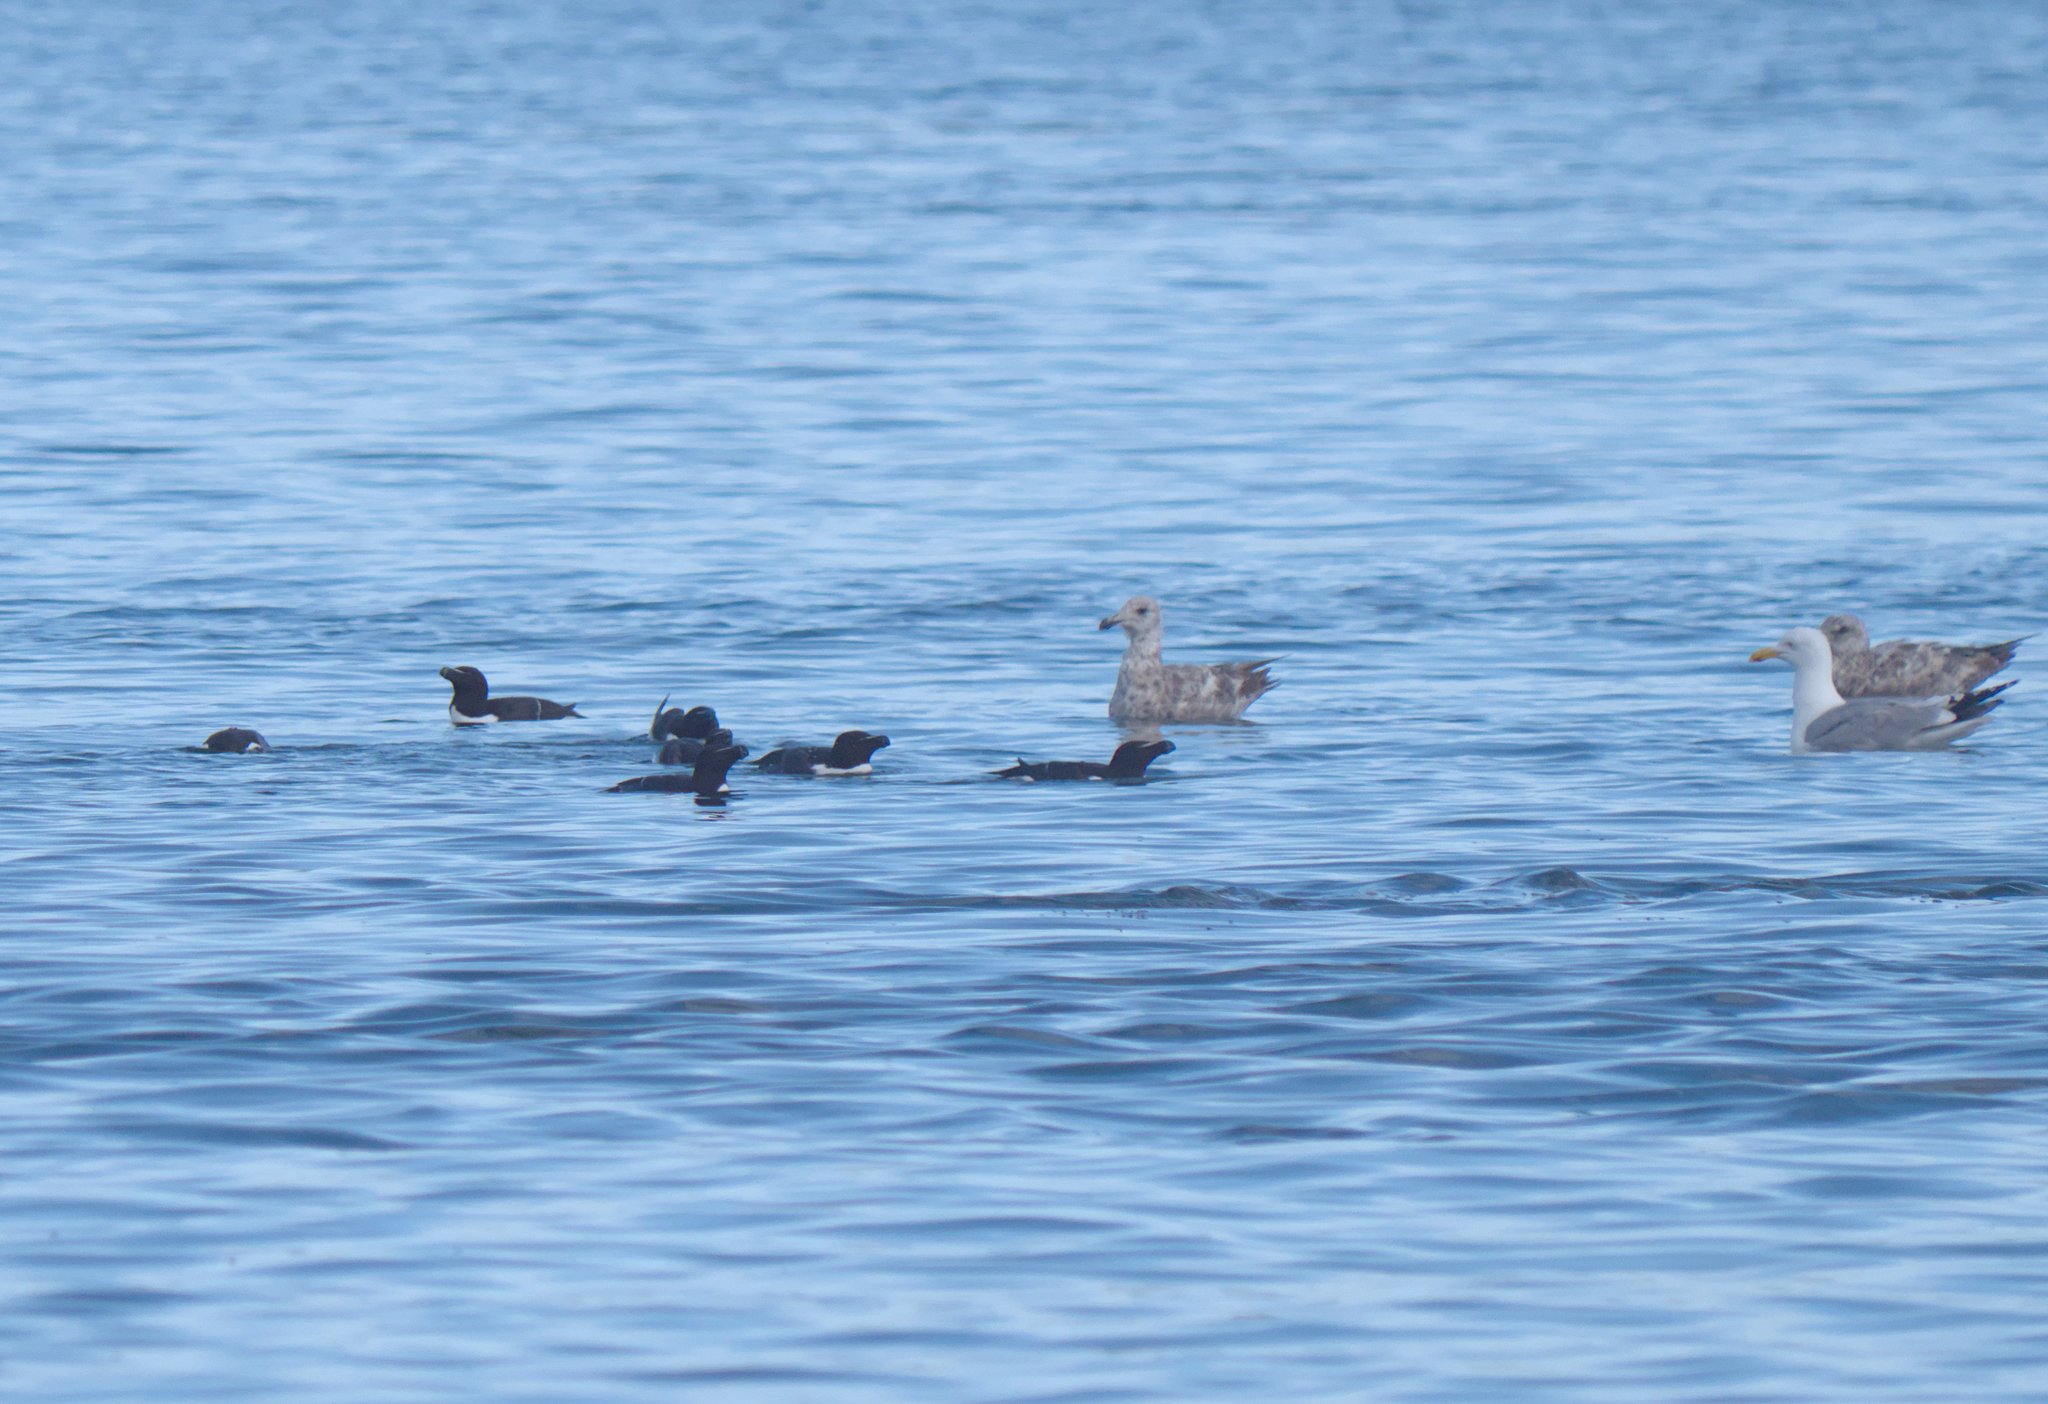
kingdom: Animalia
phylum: Chordata
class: Aves
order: Charadriiformes
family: Alcidae
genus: Alca
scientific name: Alca torda
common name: Razorbill
